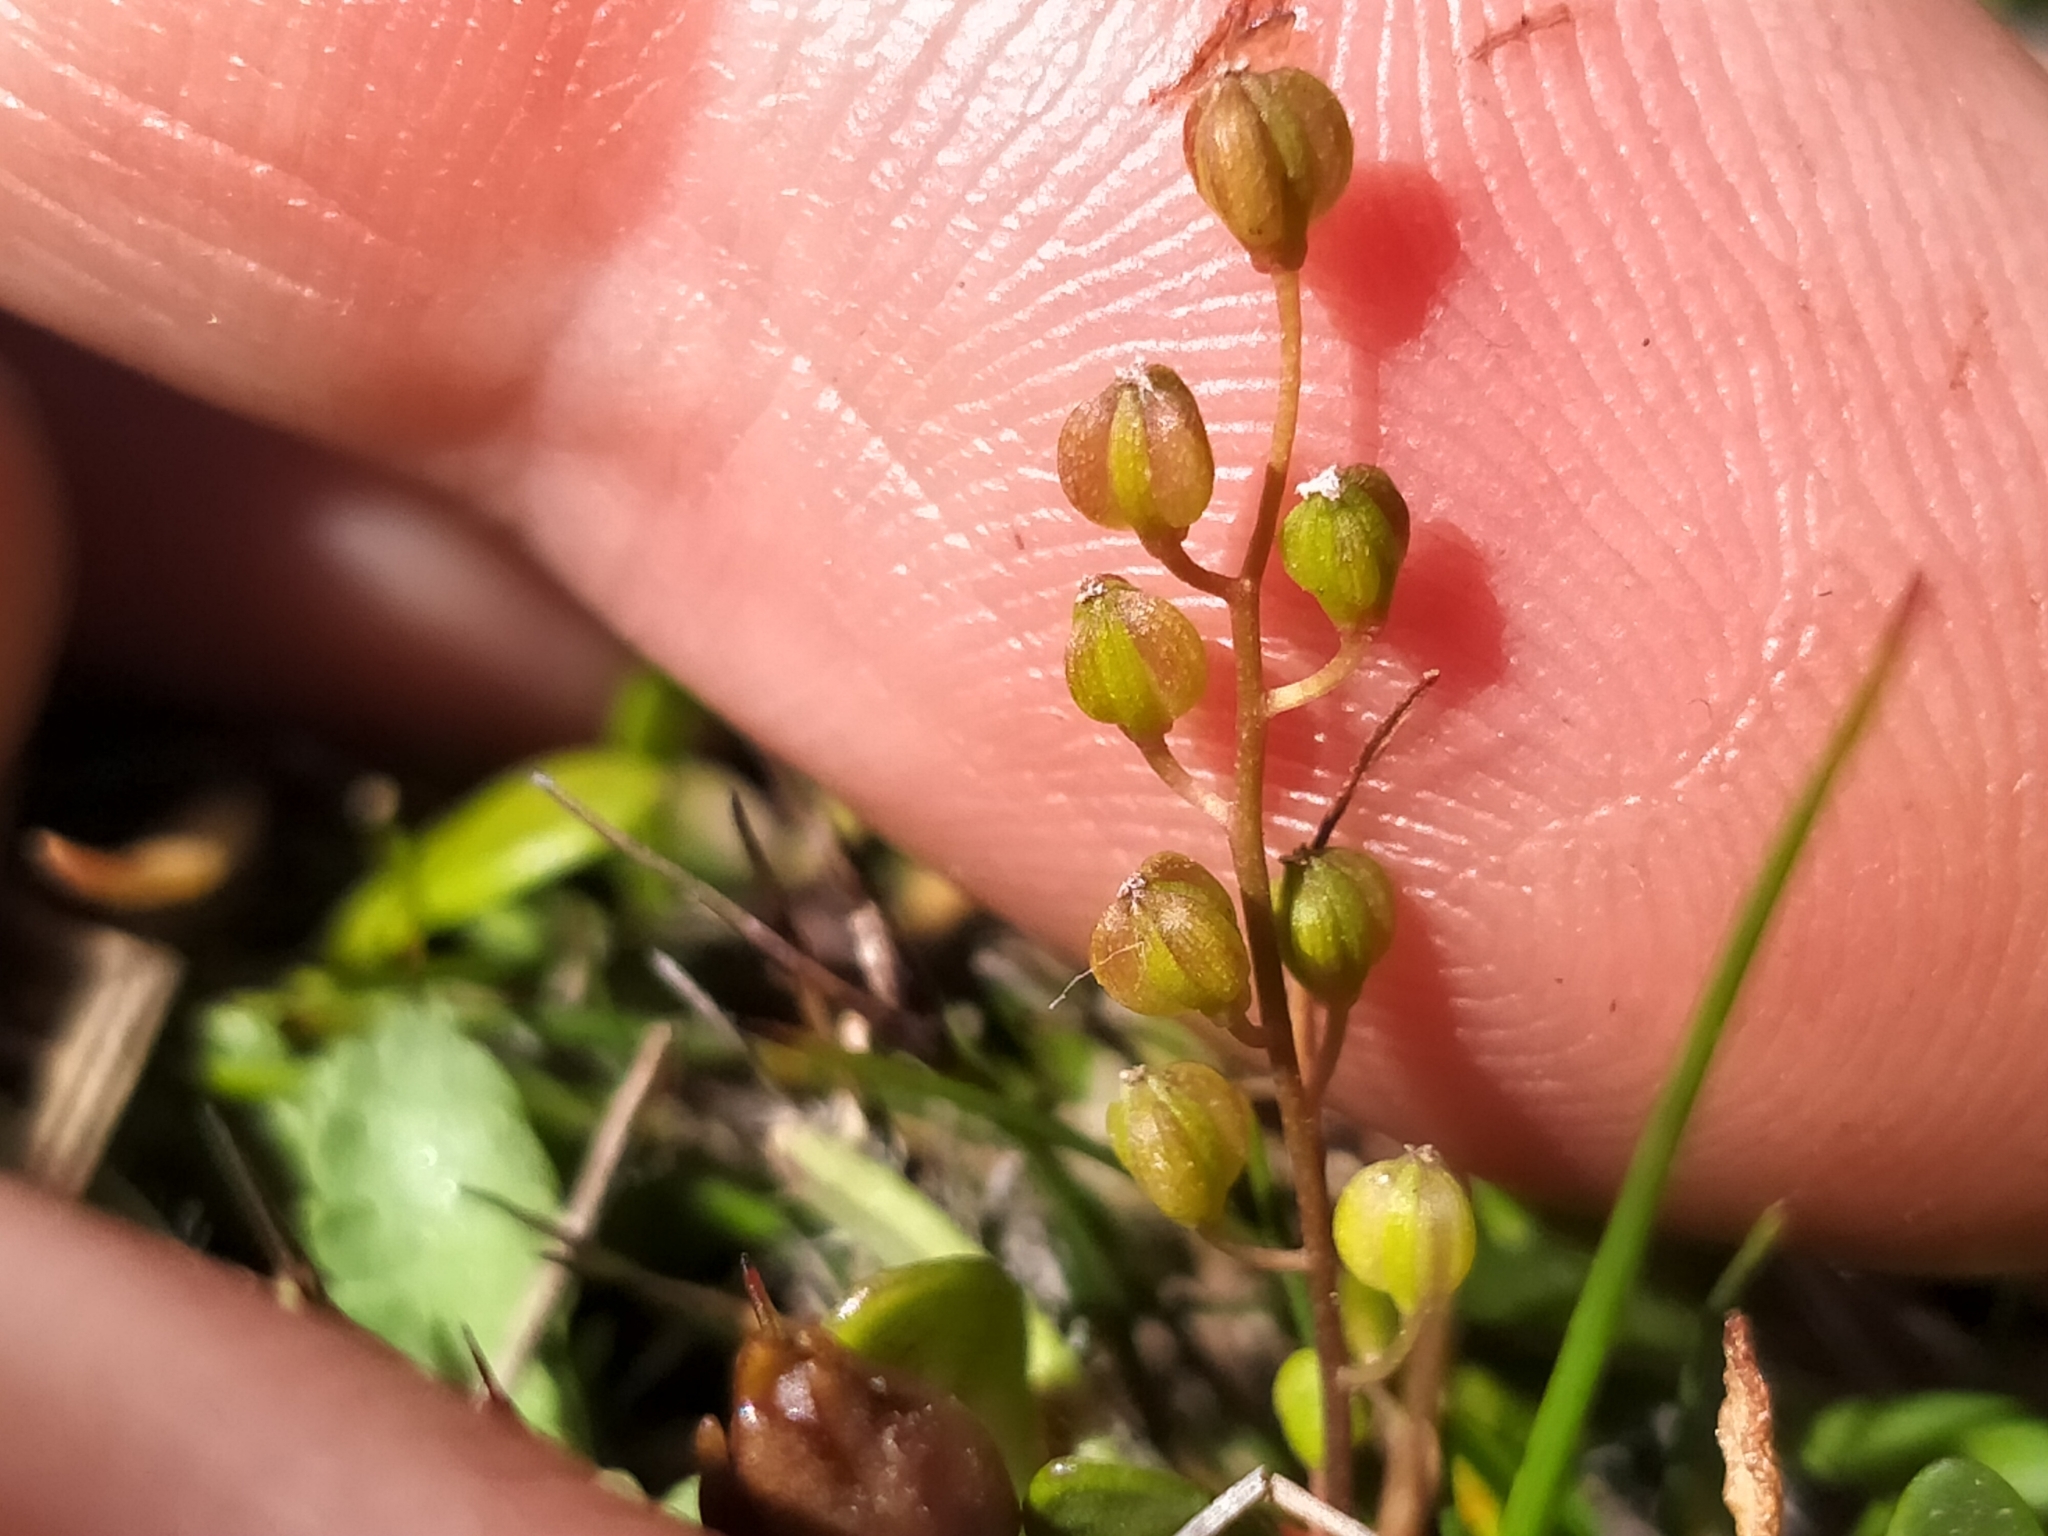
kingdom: Plantae
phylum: Tracheophyta
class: Liliopsida
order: Alismatales
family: Juncaginaceae
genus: Triglochin
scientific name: Triglochin striata
